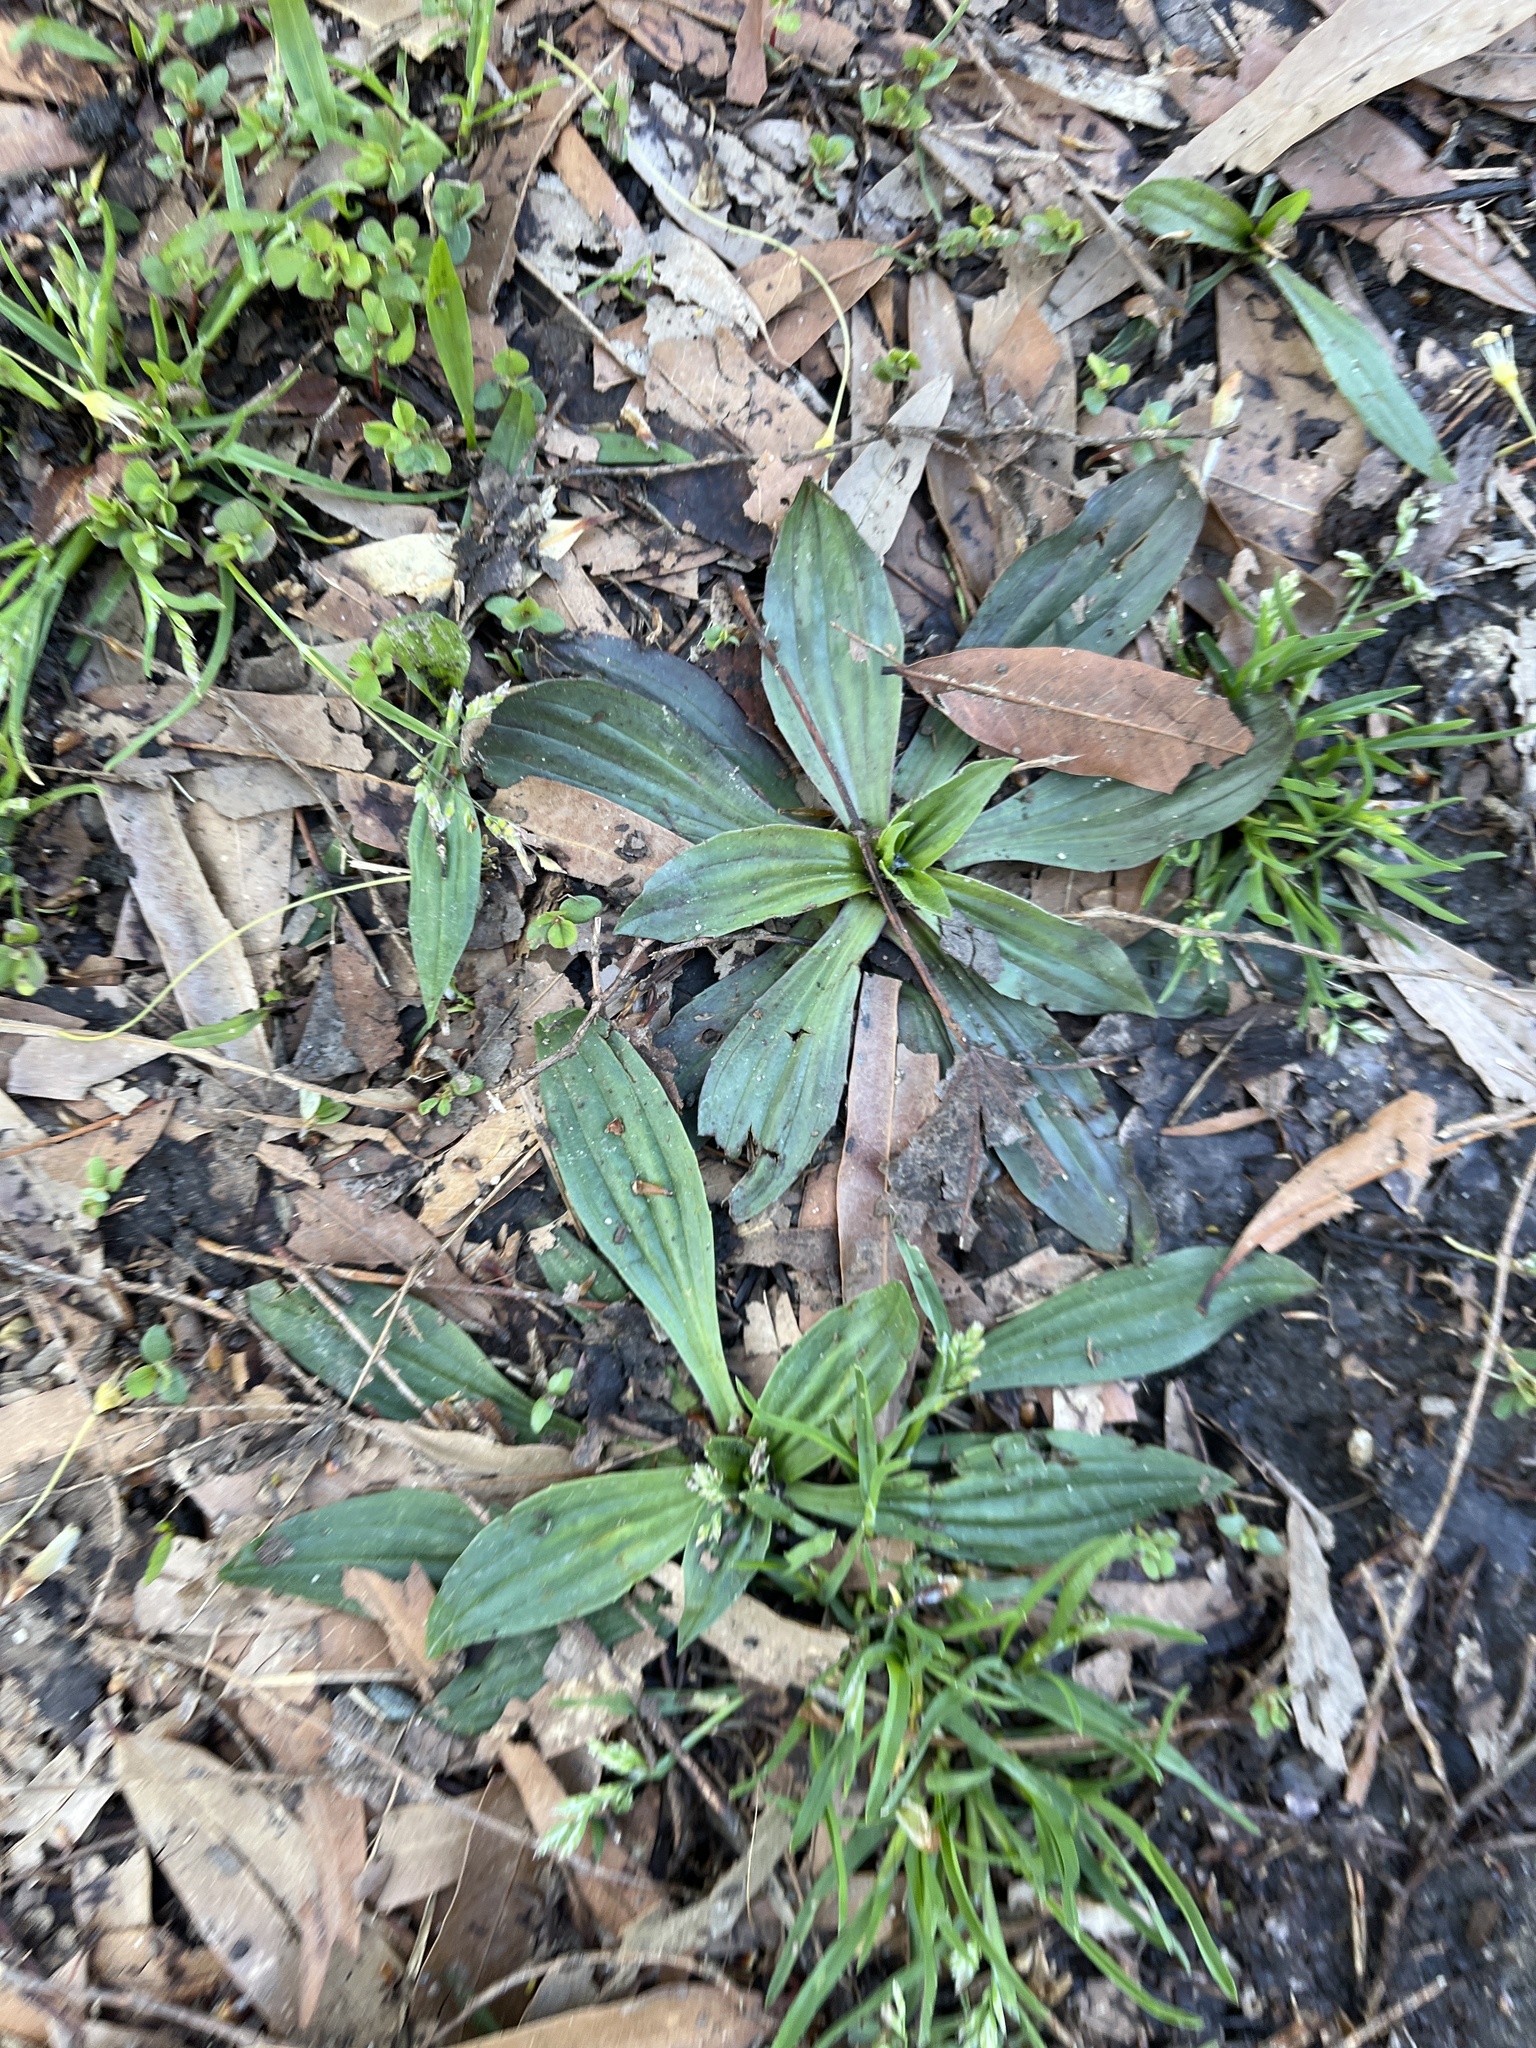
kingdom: Plantae
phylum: Tracheophyta
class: Magnoliopsida
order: Lamiales
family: Plantaginaceae
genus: Plantago
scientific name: Plantago lanceolata
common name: Ribwort plantain
